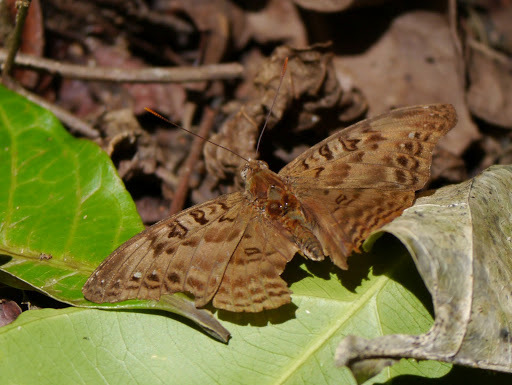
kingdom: Animalia
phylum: Arthropoda
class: Insecta
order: Lepidoptera
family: Nymphalidae
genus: Euryphura
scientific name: Euryphura chalcis
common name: Common commander
